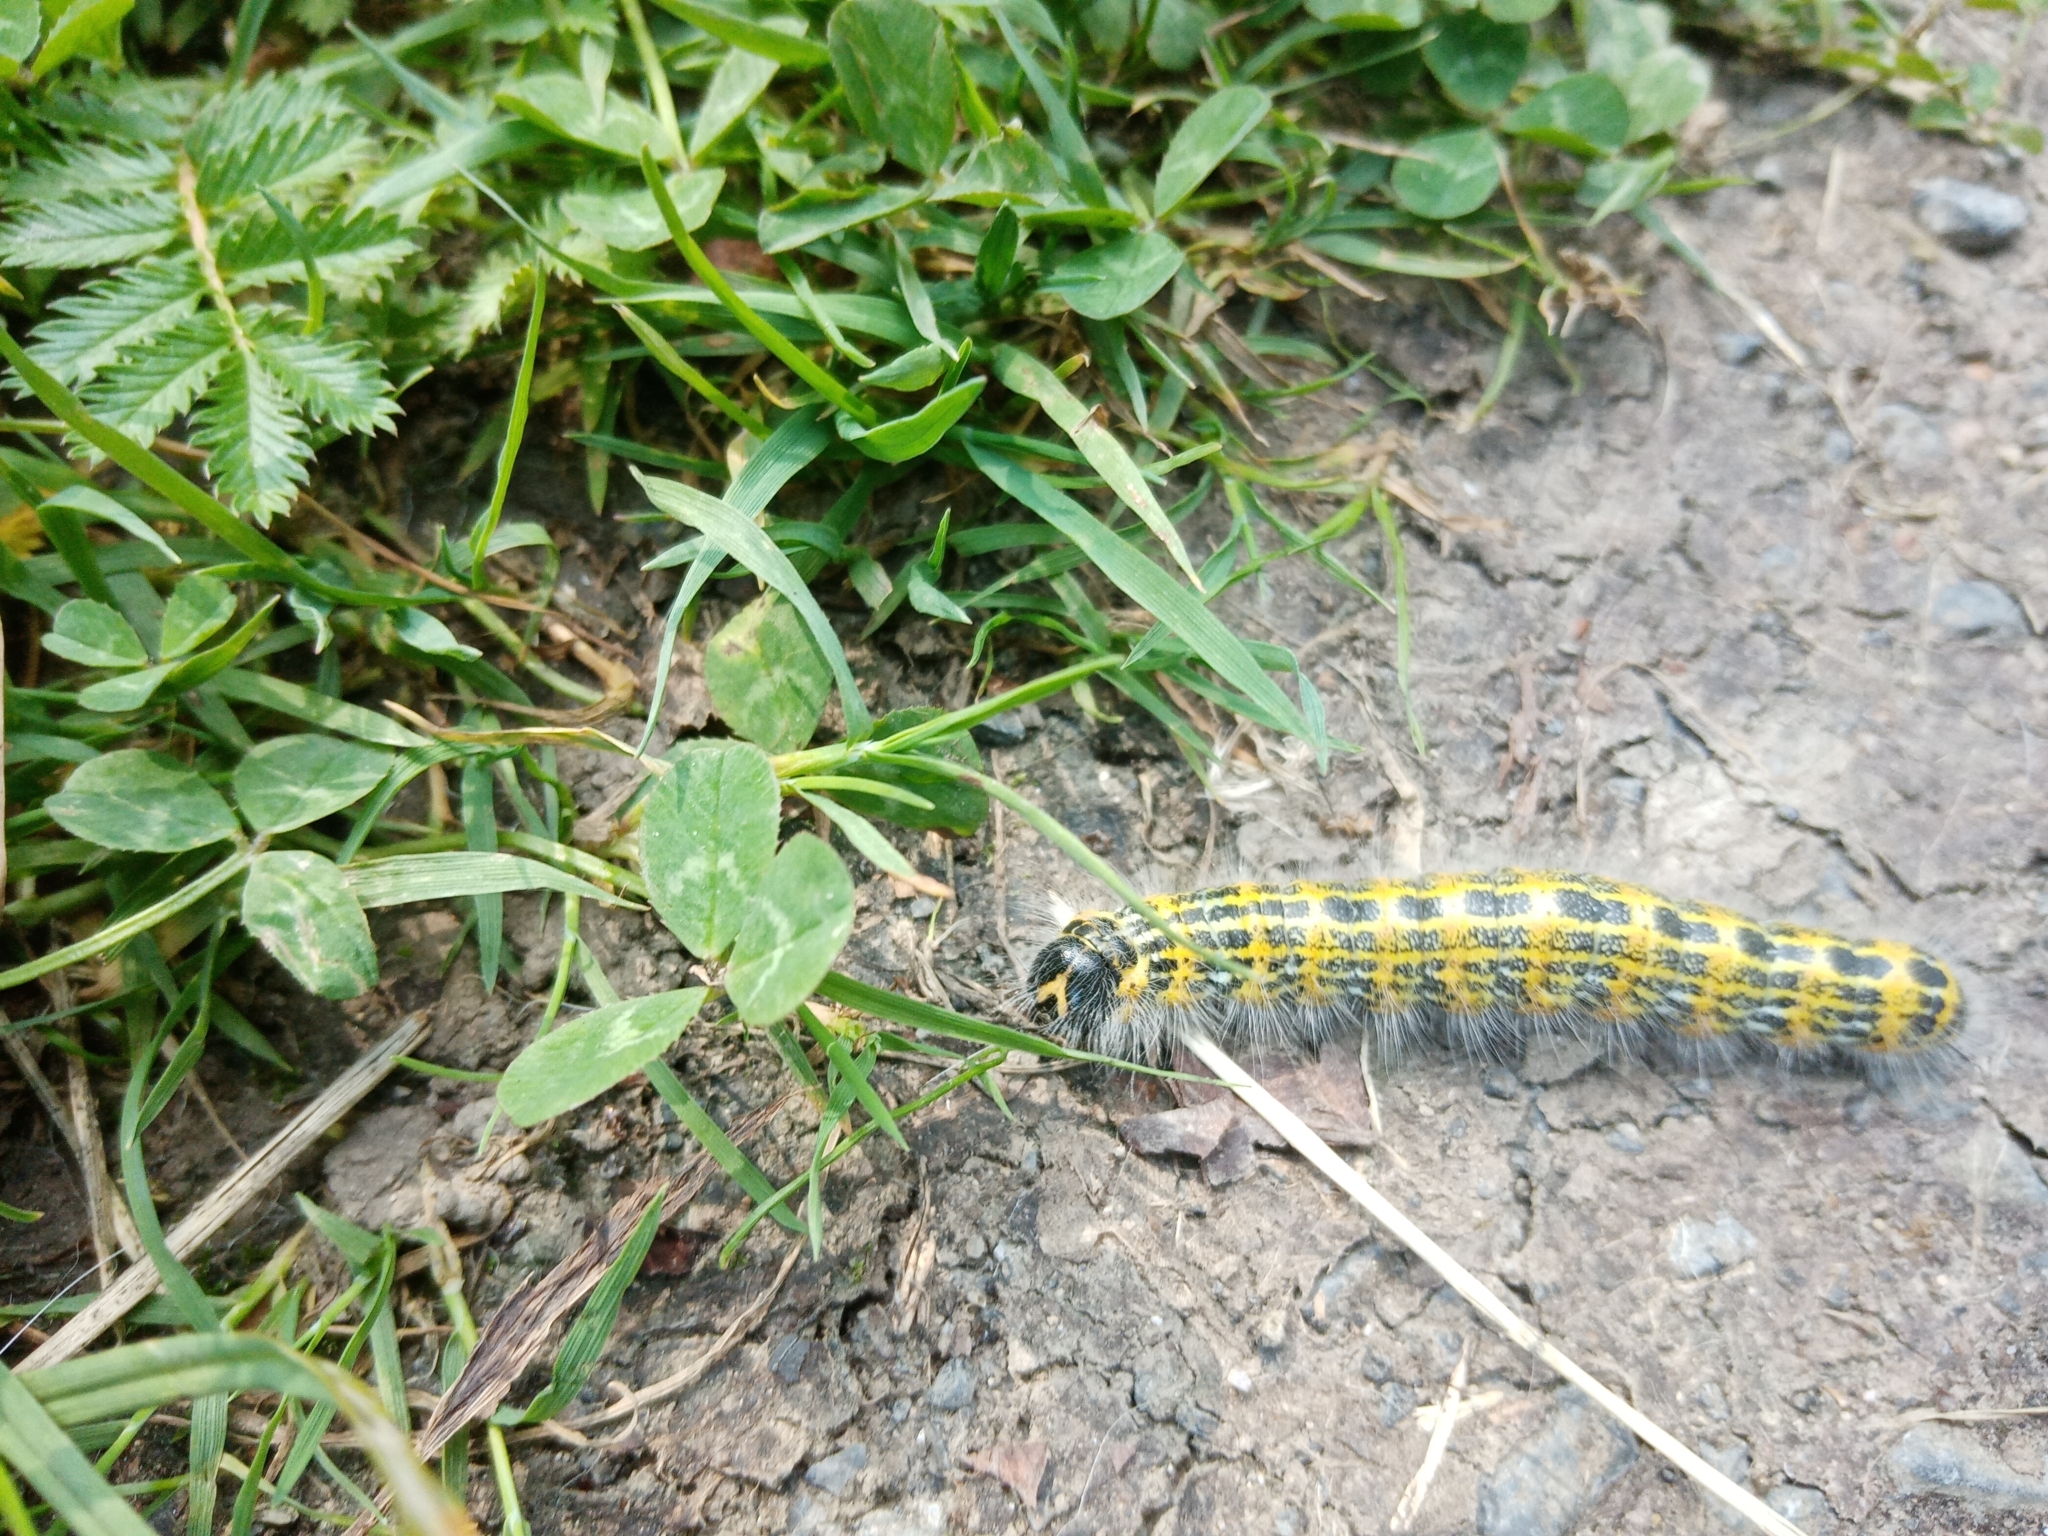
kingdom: Animalia
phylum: Arthropoda
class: Insecta
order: Lepidoptera
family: Notodontidae
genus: Phalera
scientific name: Phalera bucephala
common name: Buff-tip
